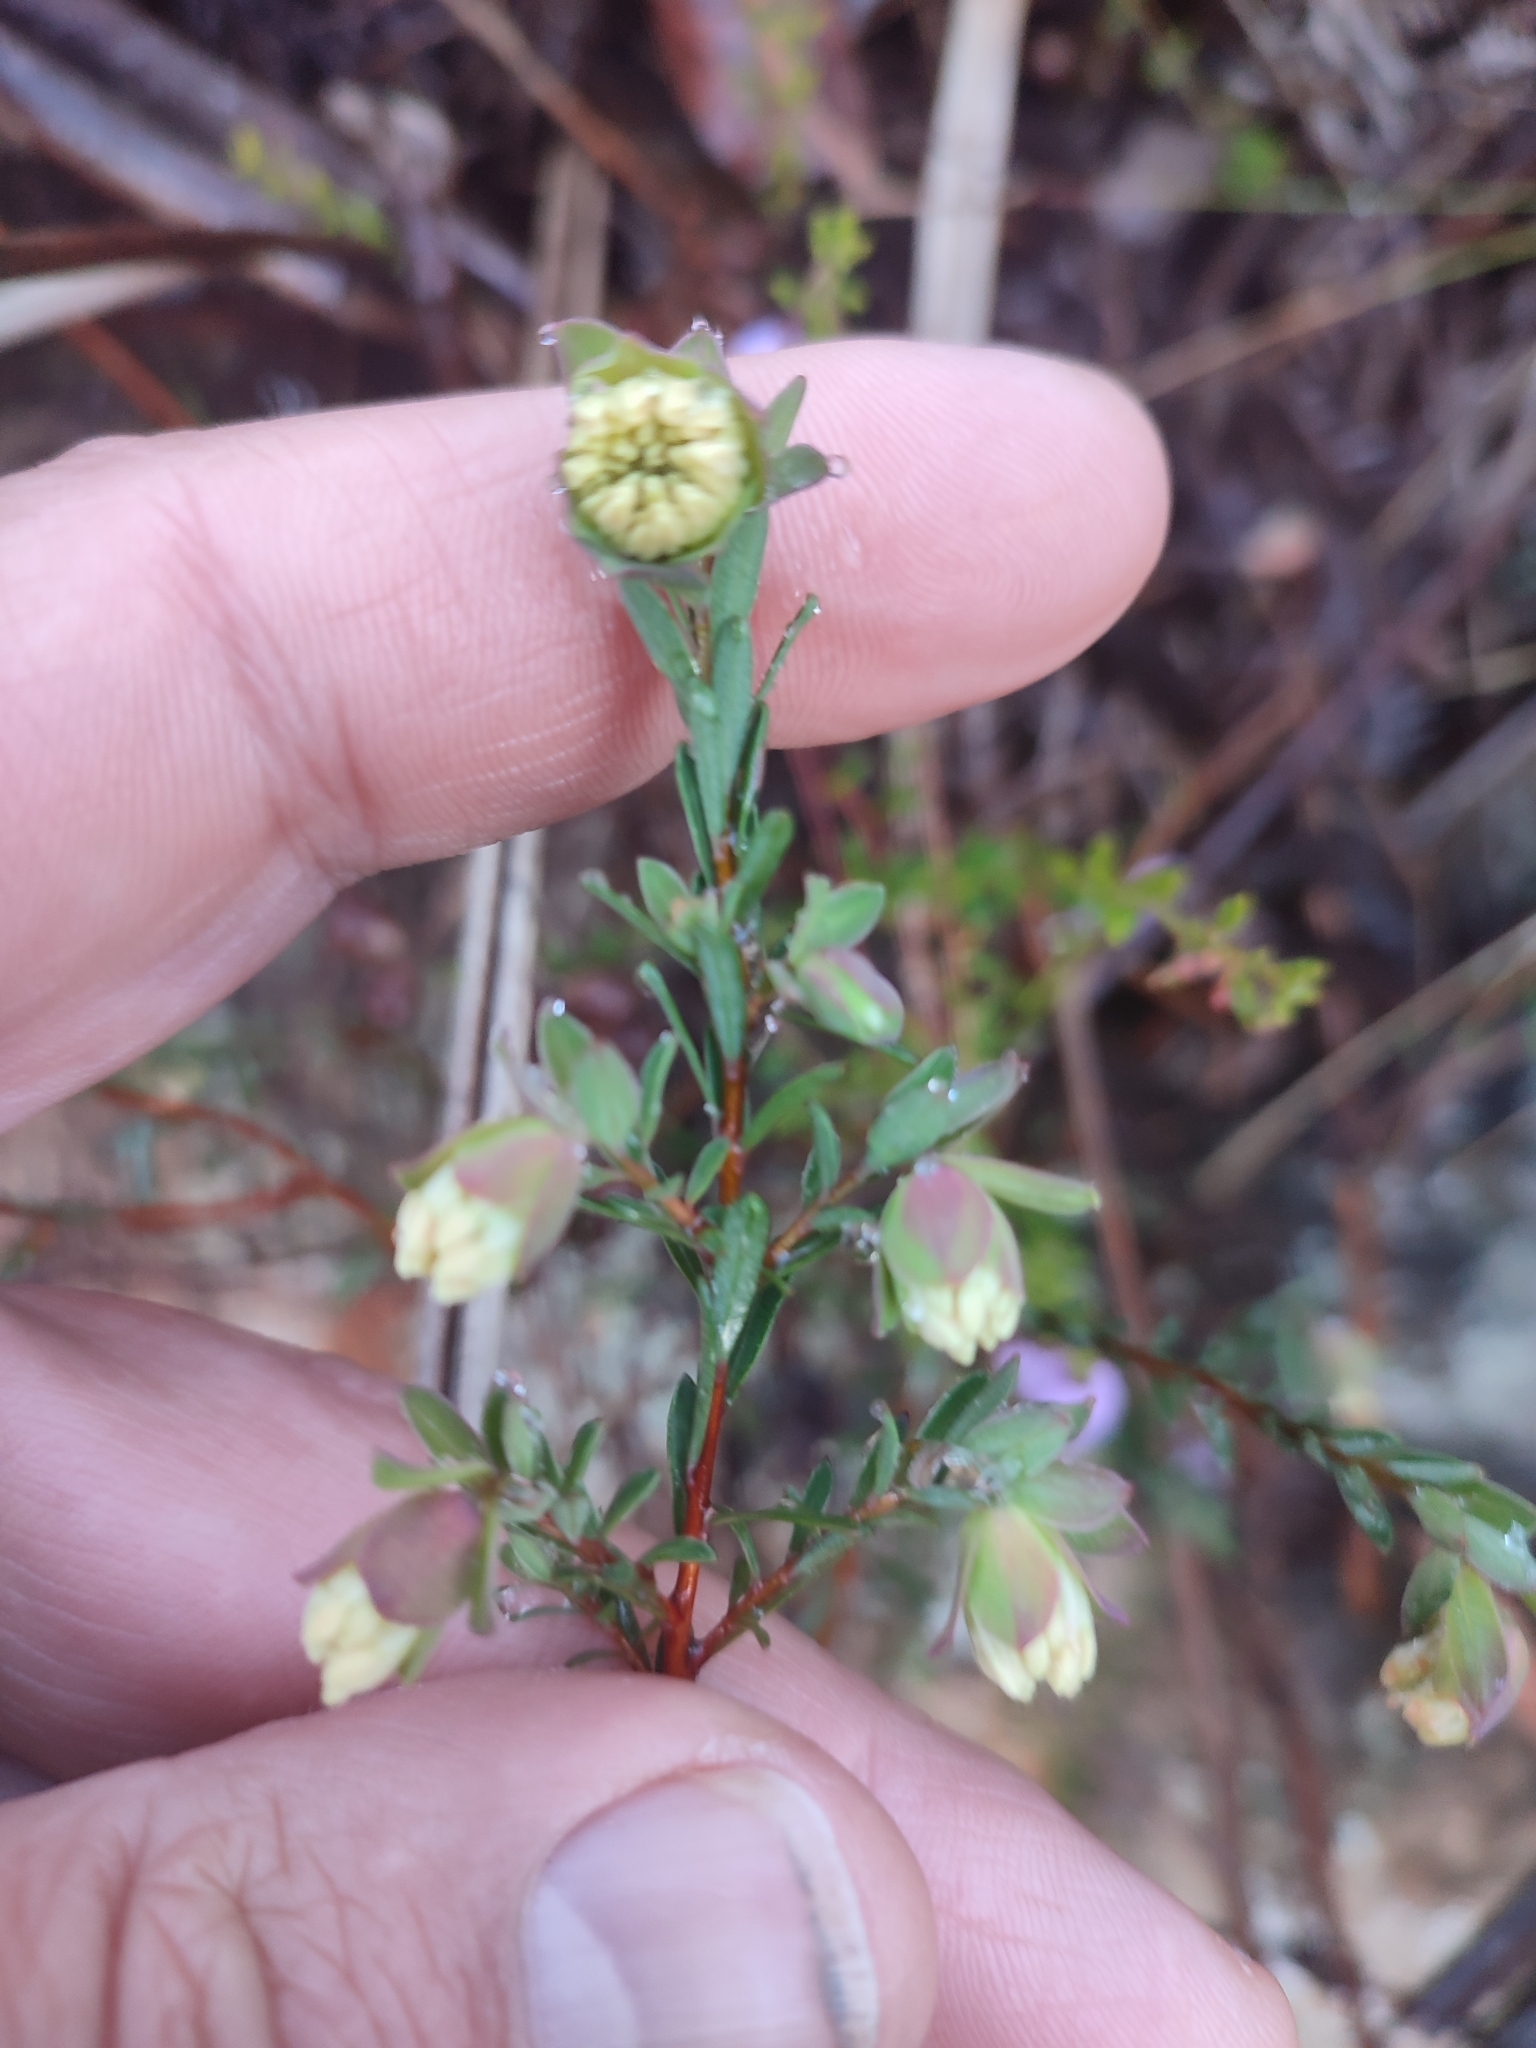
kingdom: Plantae
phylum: Tracheophyta
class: Magnoliopsida
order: Malvales
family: Thymelaeaceae
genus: Pimelea
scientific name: Pimelea linifolia
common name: Queen-of-the-bush
